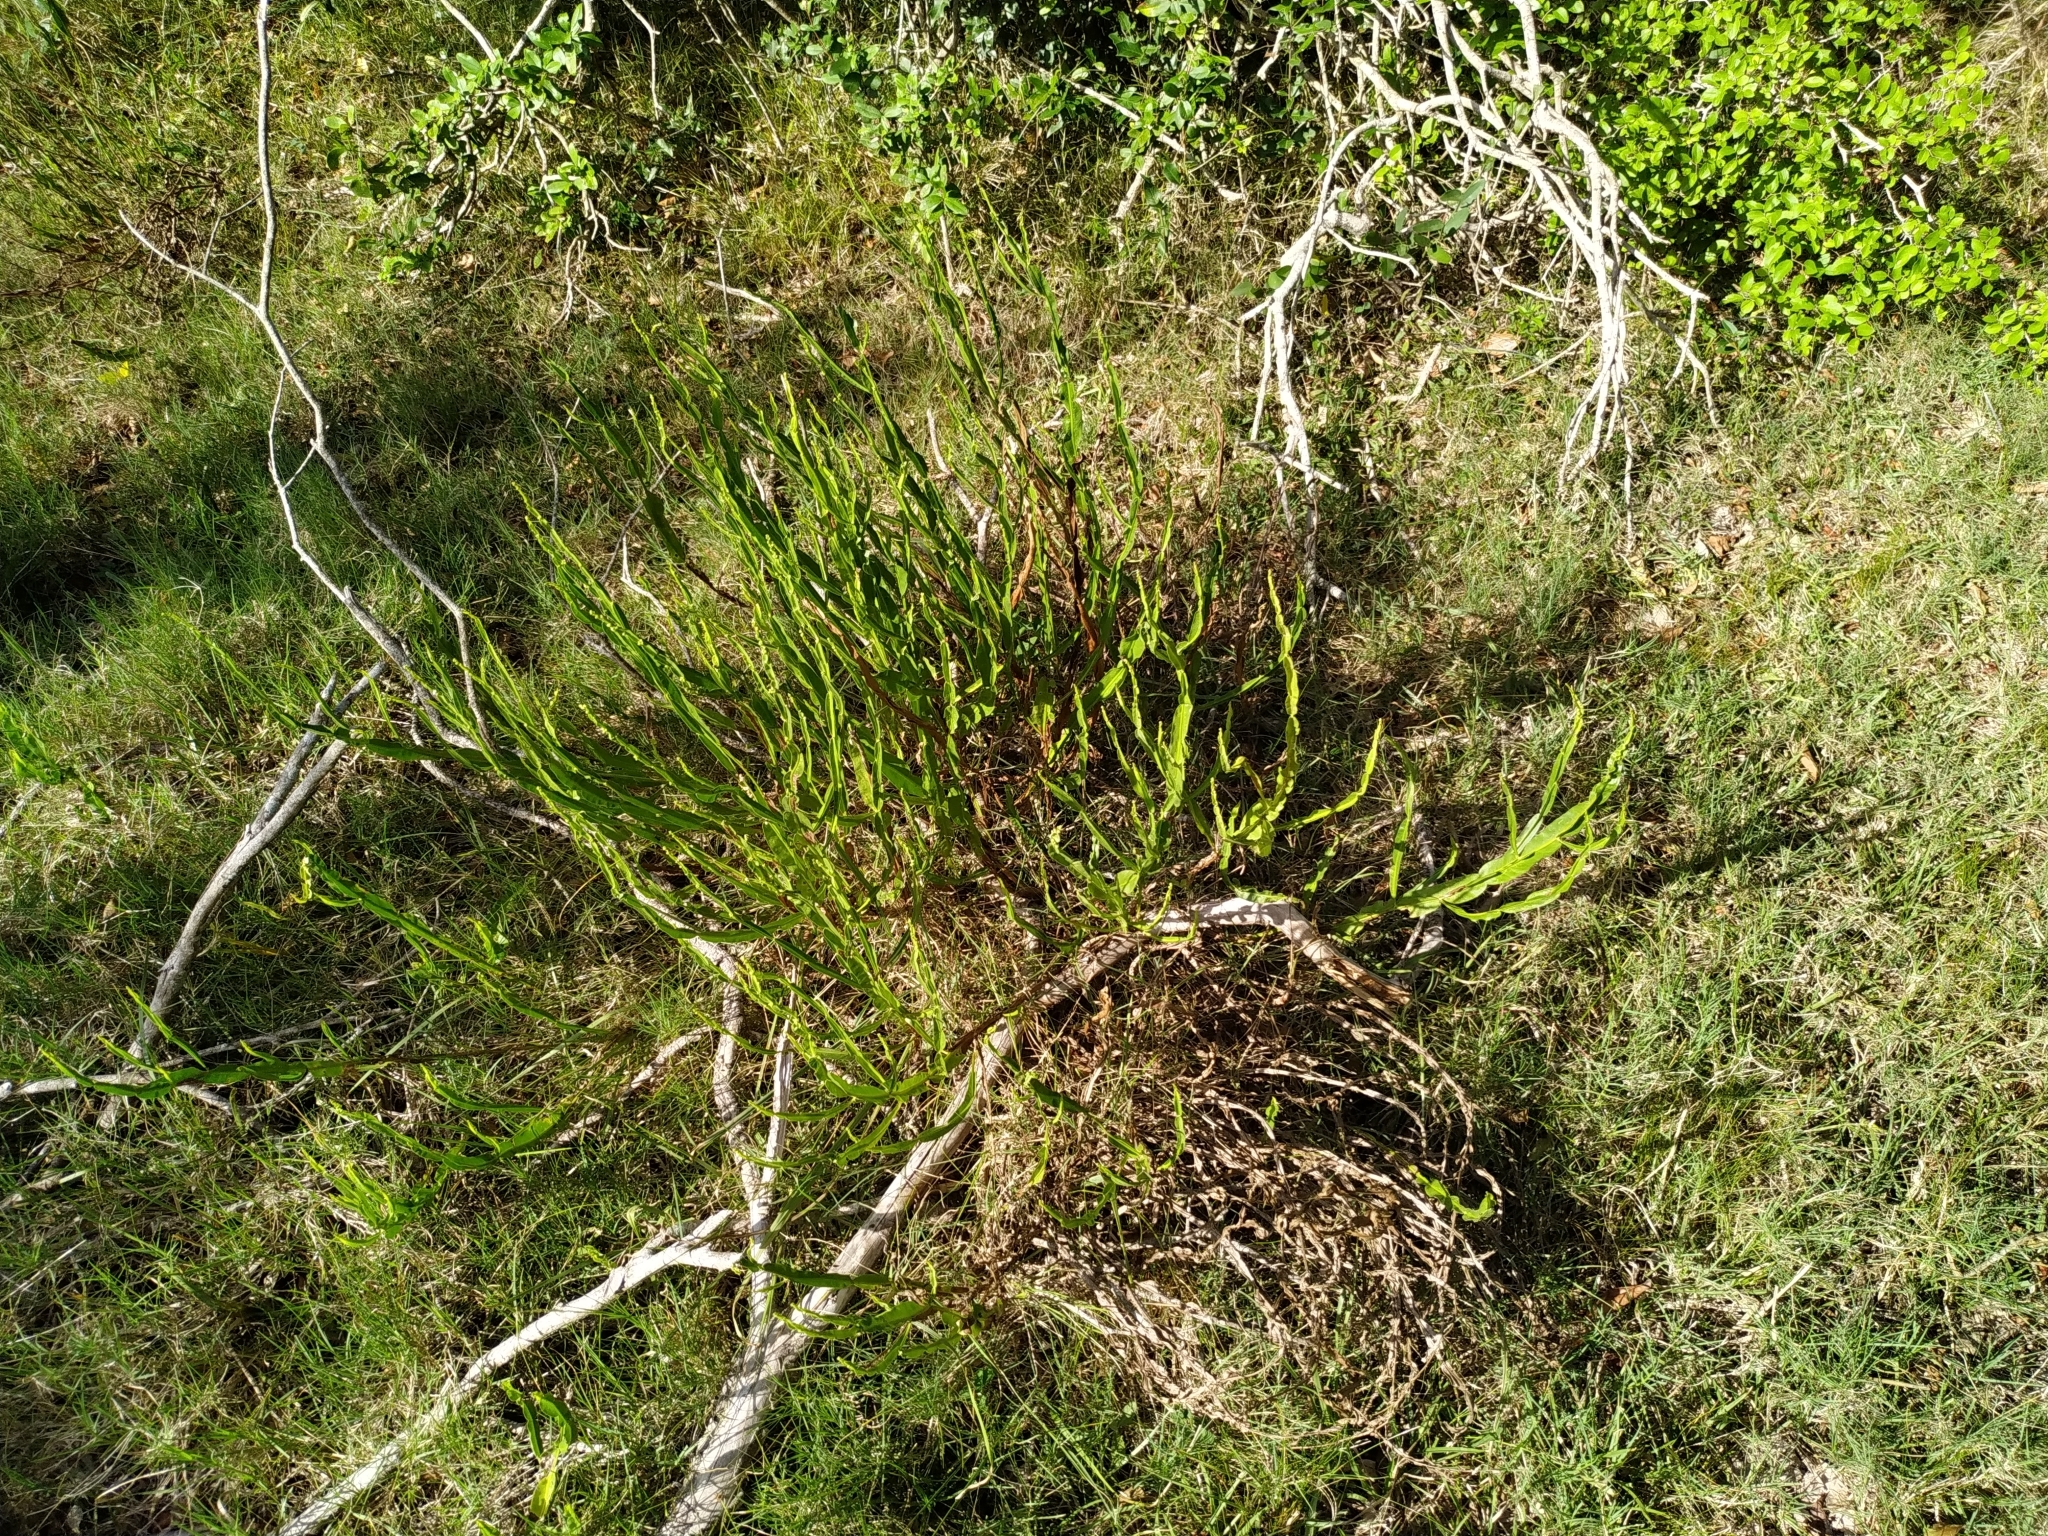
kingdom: Plantae
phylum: Tracheophyta
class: Magnoliopsida
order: Asterales
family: Asteraceae
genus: Baccharis
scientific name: Baccharis trimera
